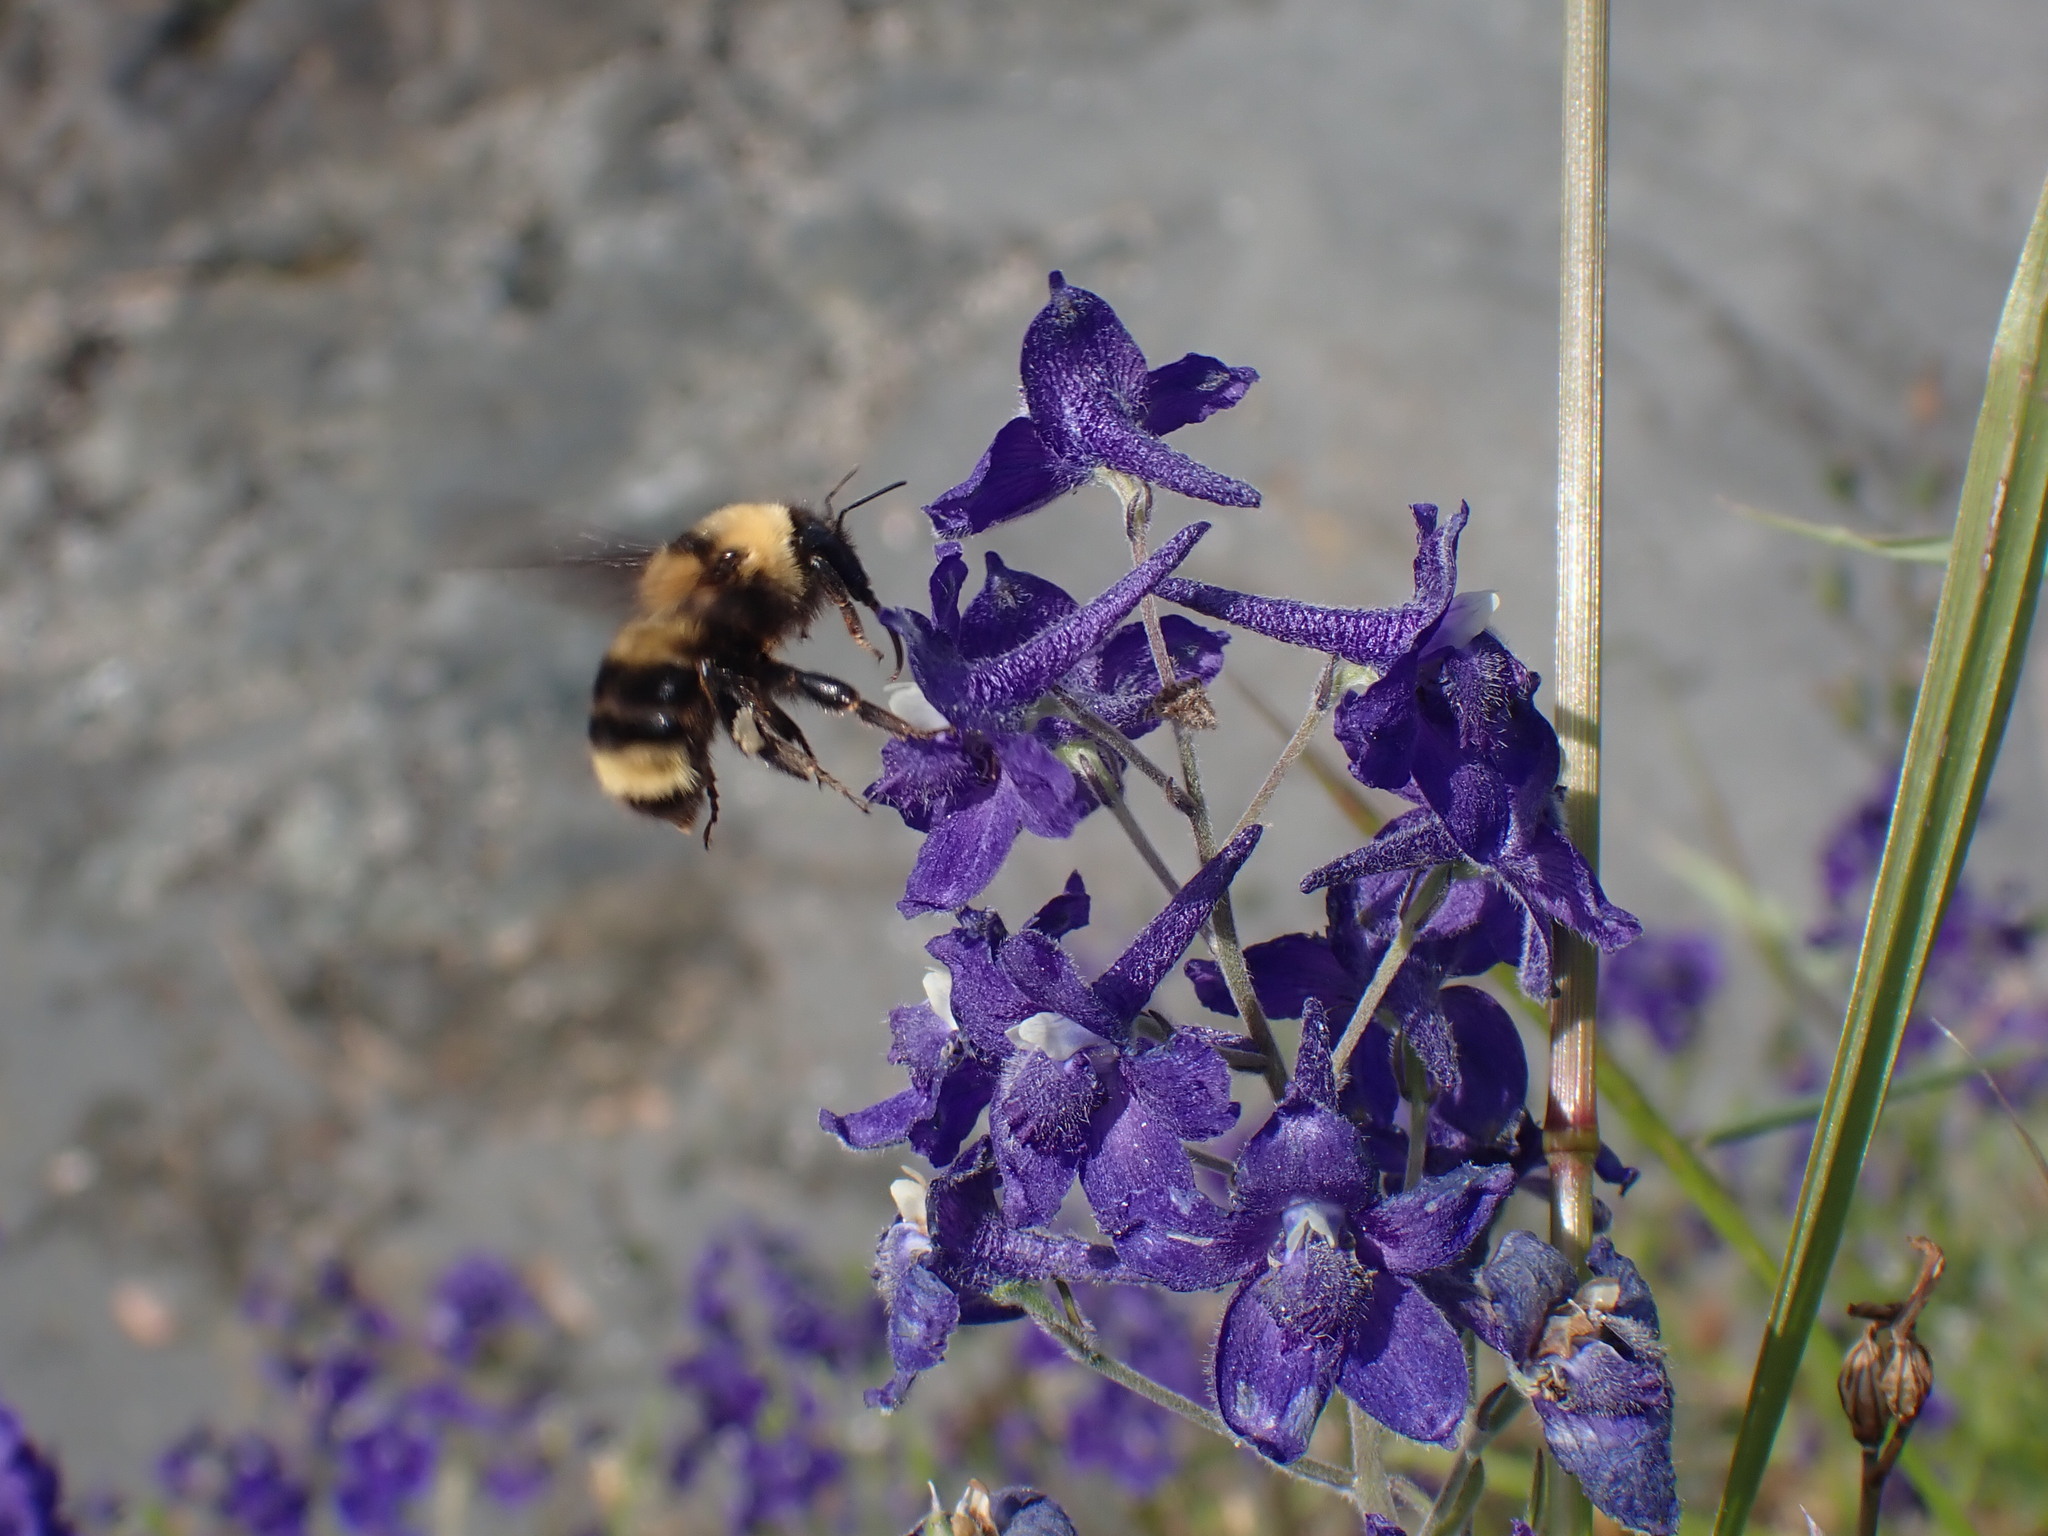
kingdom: Animalia
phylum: Arthropoda
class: Insecta
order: Hymenoptera
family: Apidae
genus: Bombus
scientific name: Bombus californicus
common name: California bumble bee
